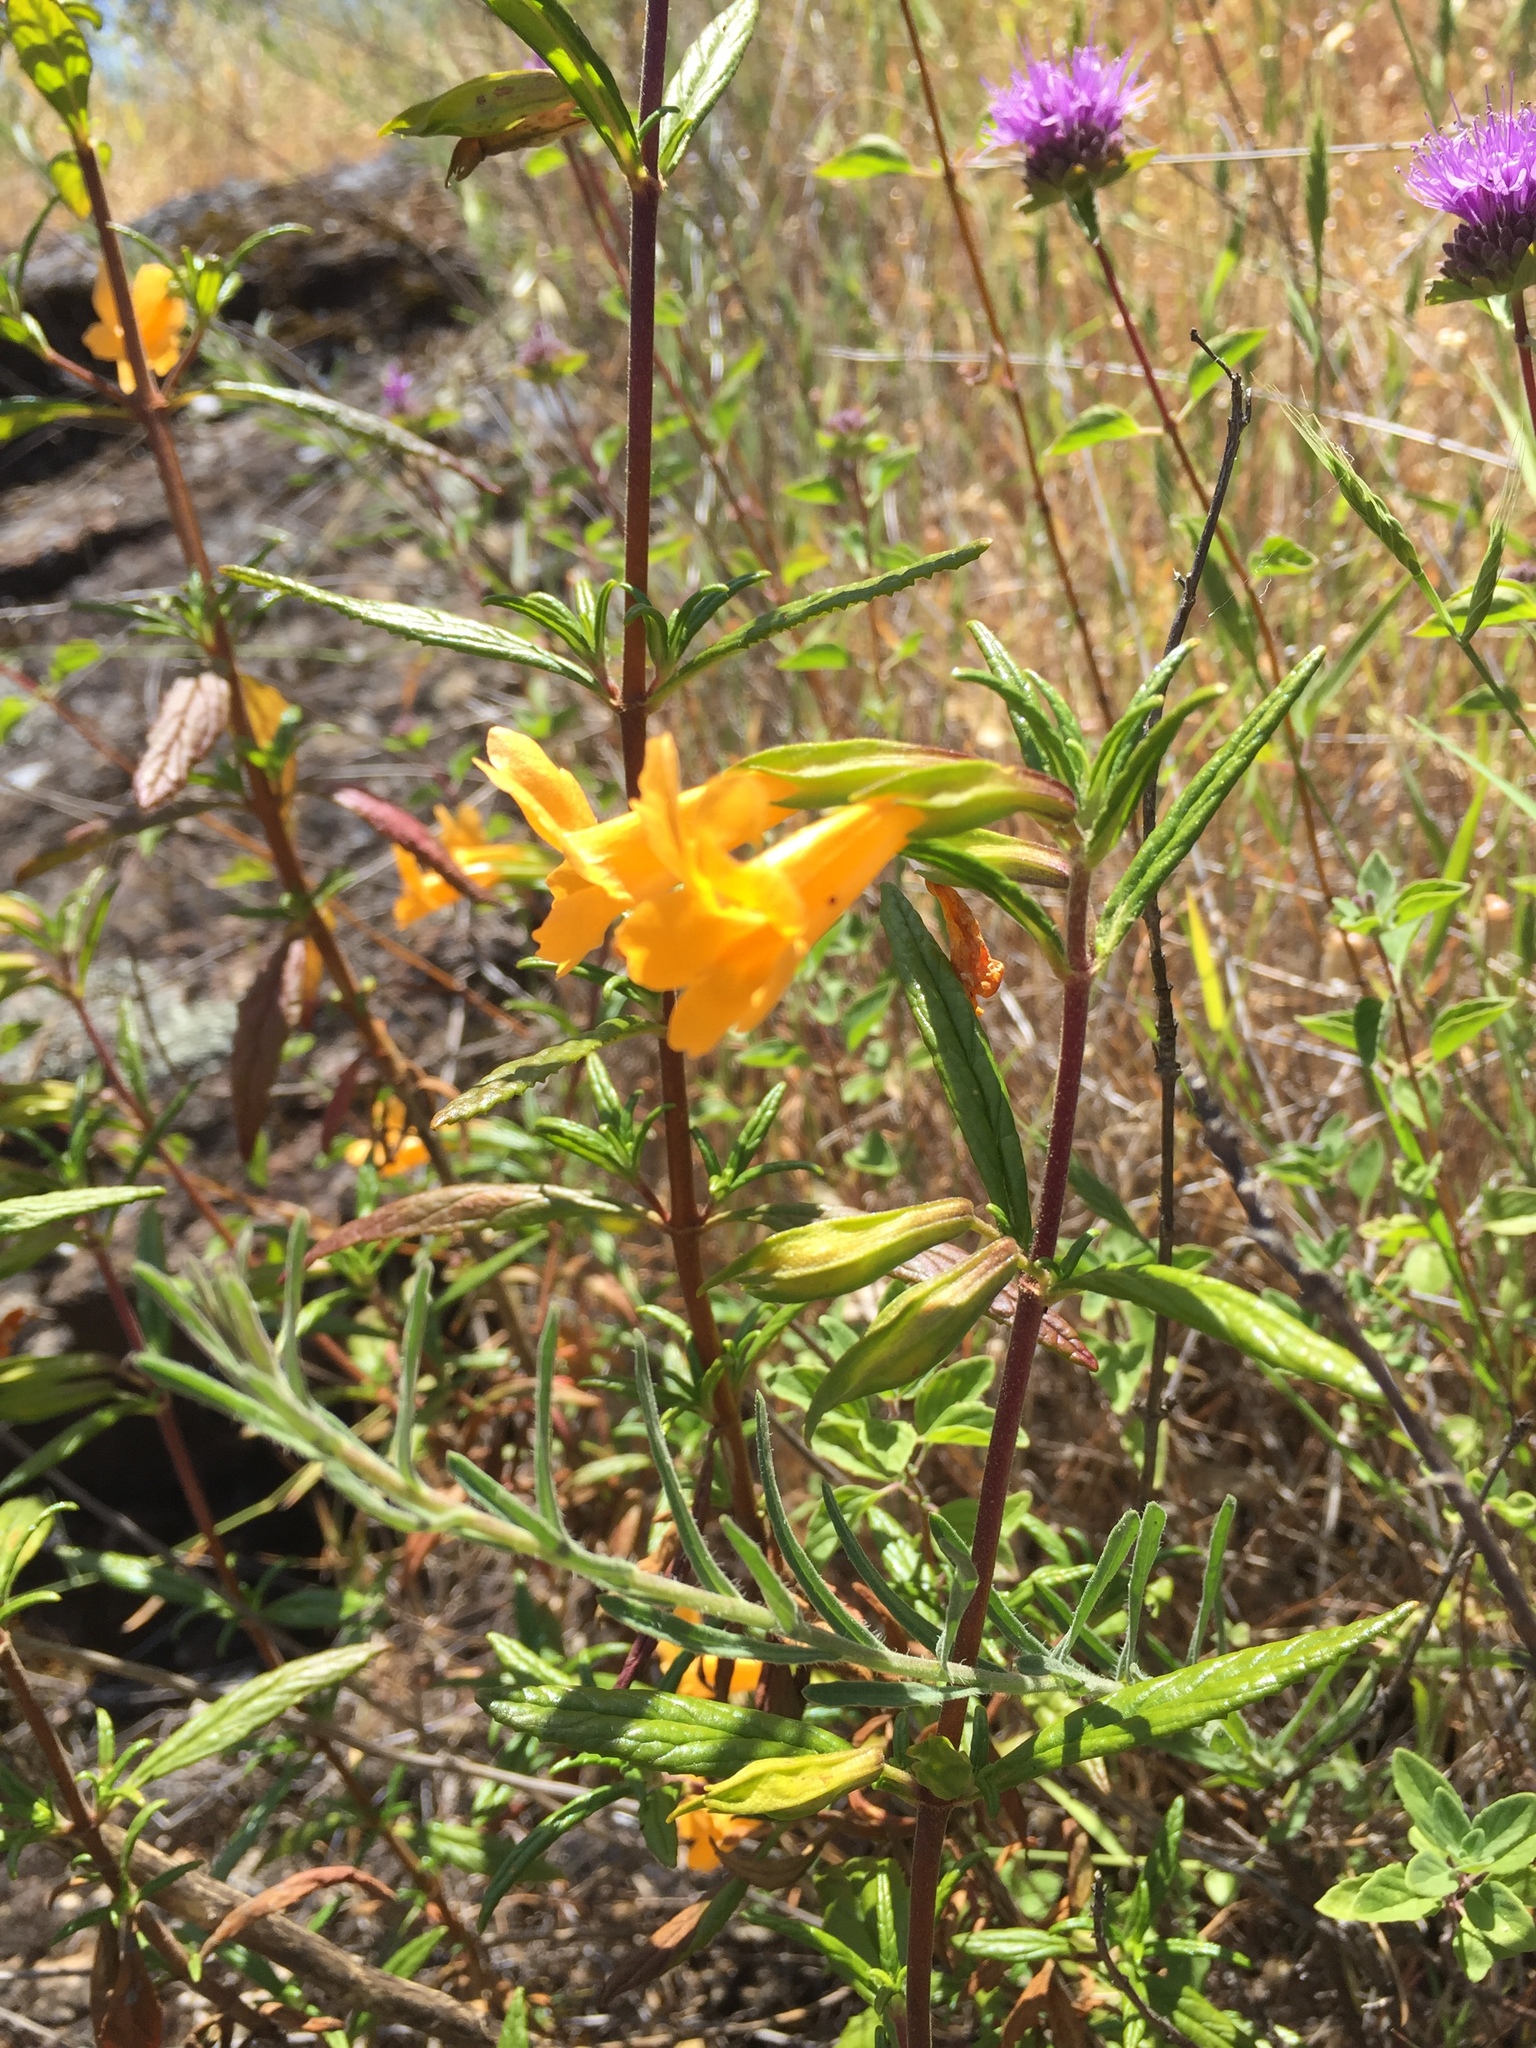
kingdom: Plantae
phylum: Tracheophyta
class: Magnoliopsida
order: Lamiales
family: Phrymaceae
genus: Diplacus
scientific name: Diplacus aurantiacus
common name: Bush monkey-flower
